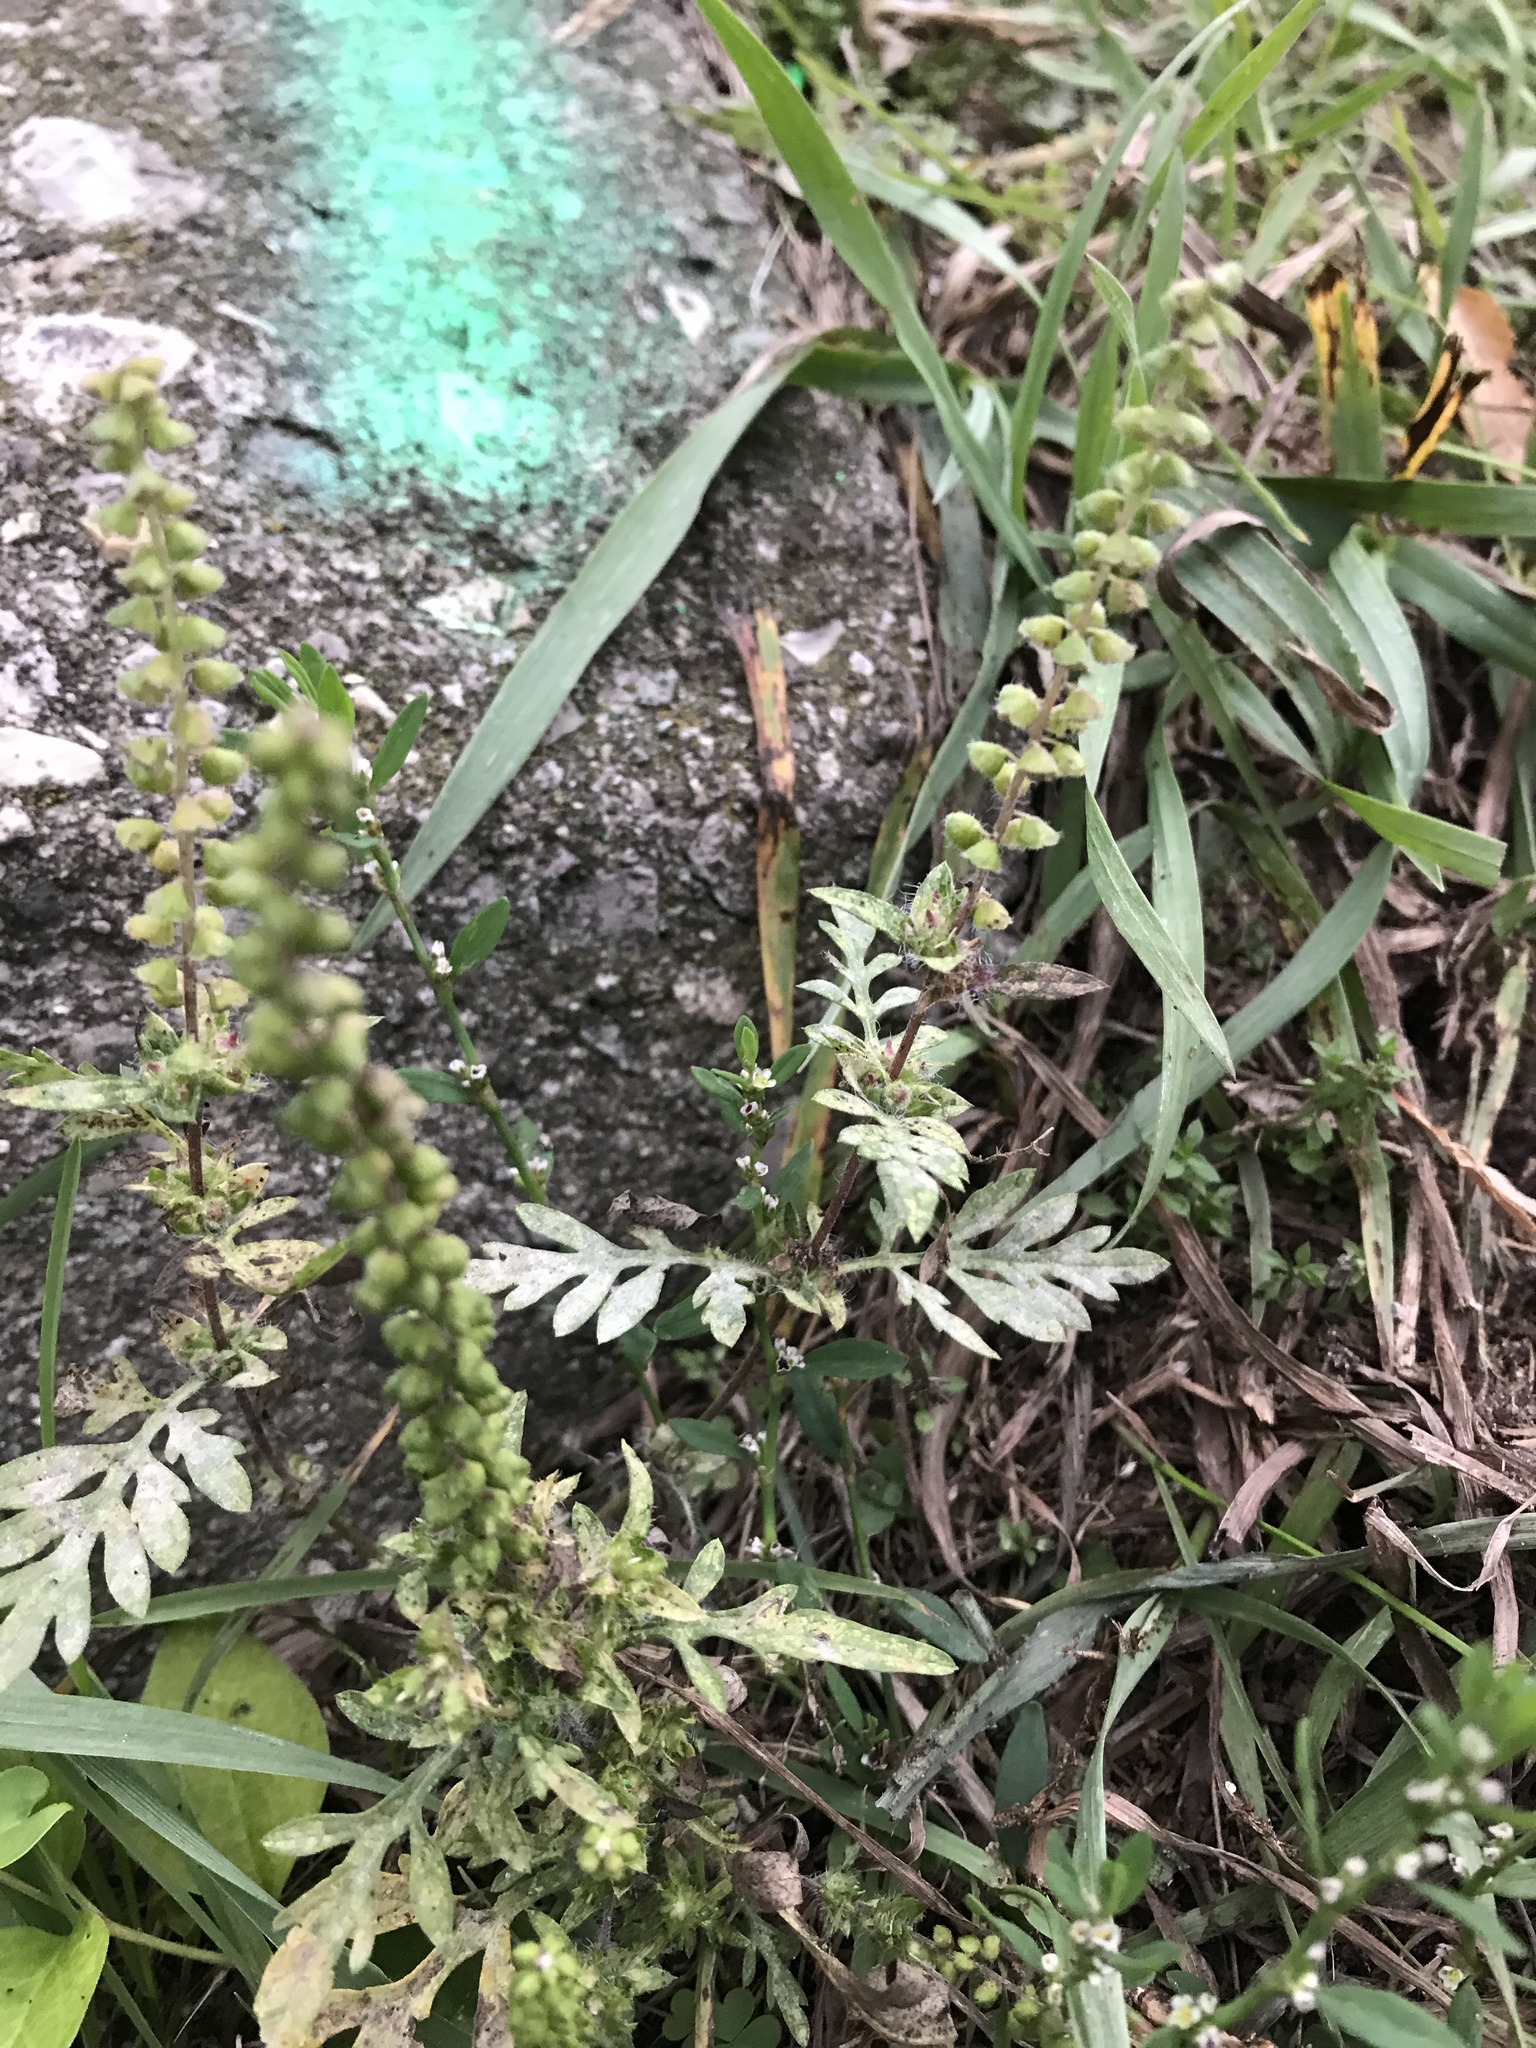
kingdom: Plantae
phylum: Tracheophyta
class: Magnoliopsida
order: Asterales
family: Asteraceae
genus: Ambrosia
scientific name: Ambrosia artemisiifolia
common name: Annual ragweed
